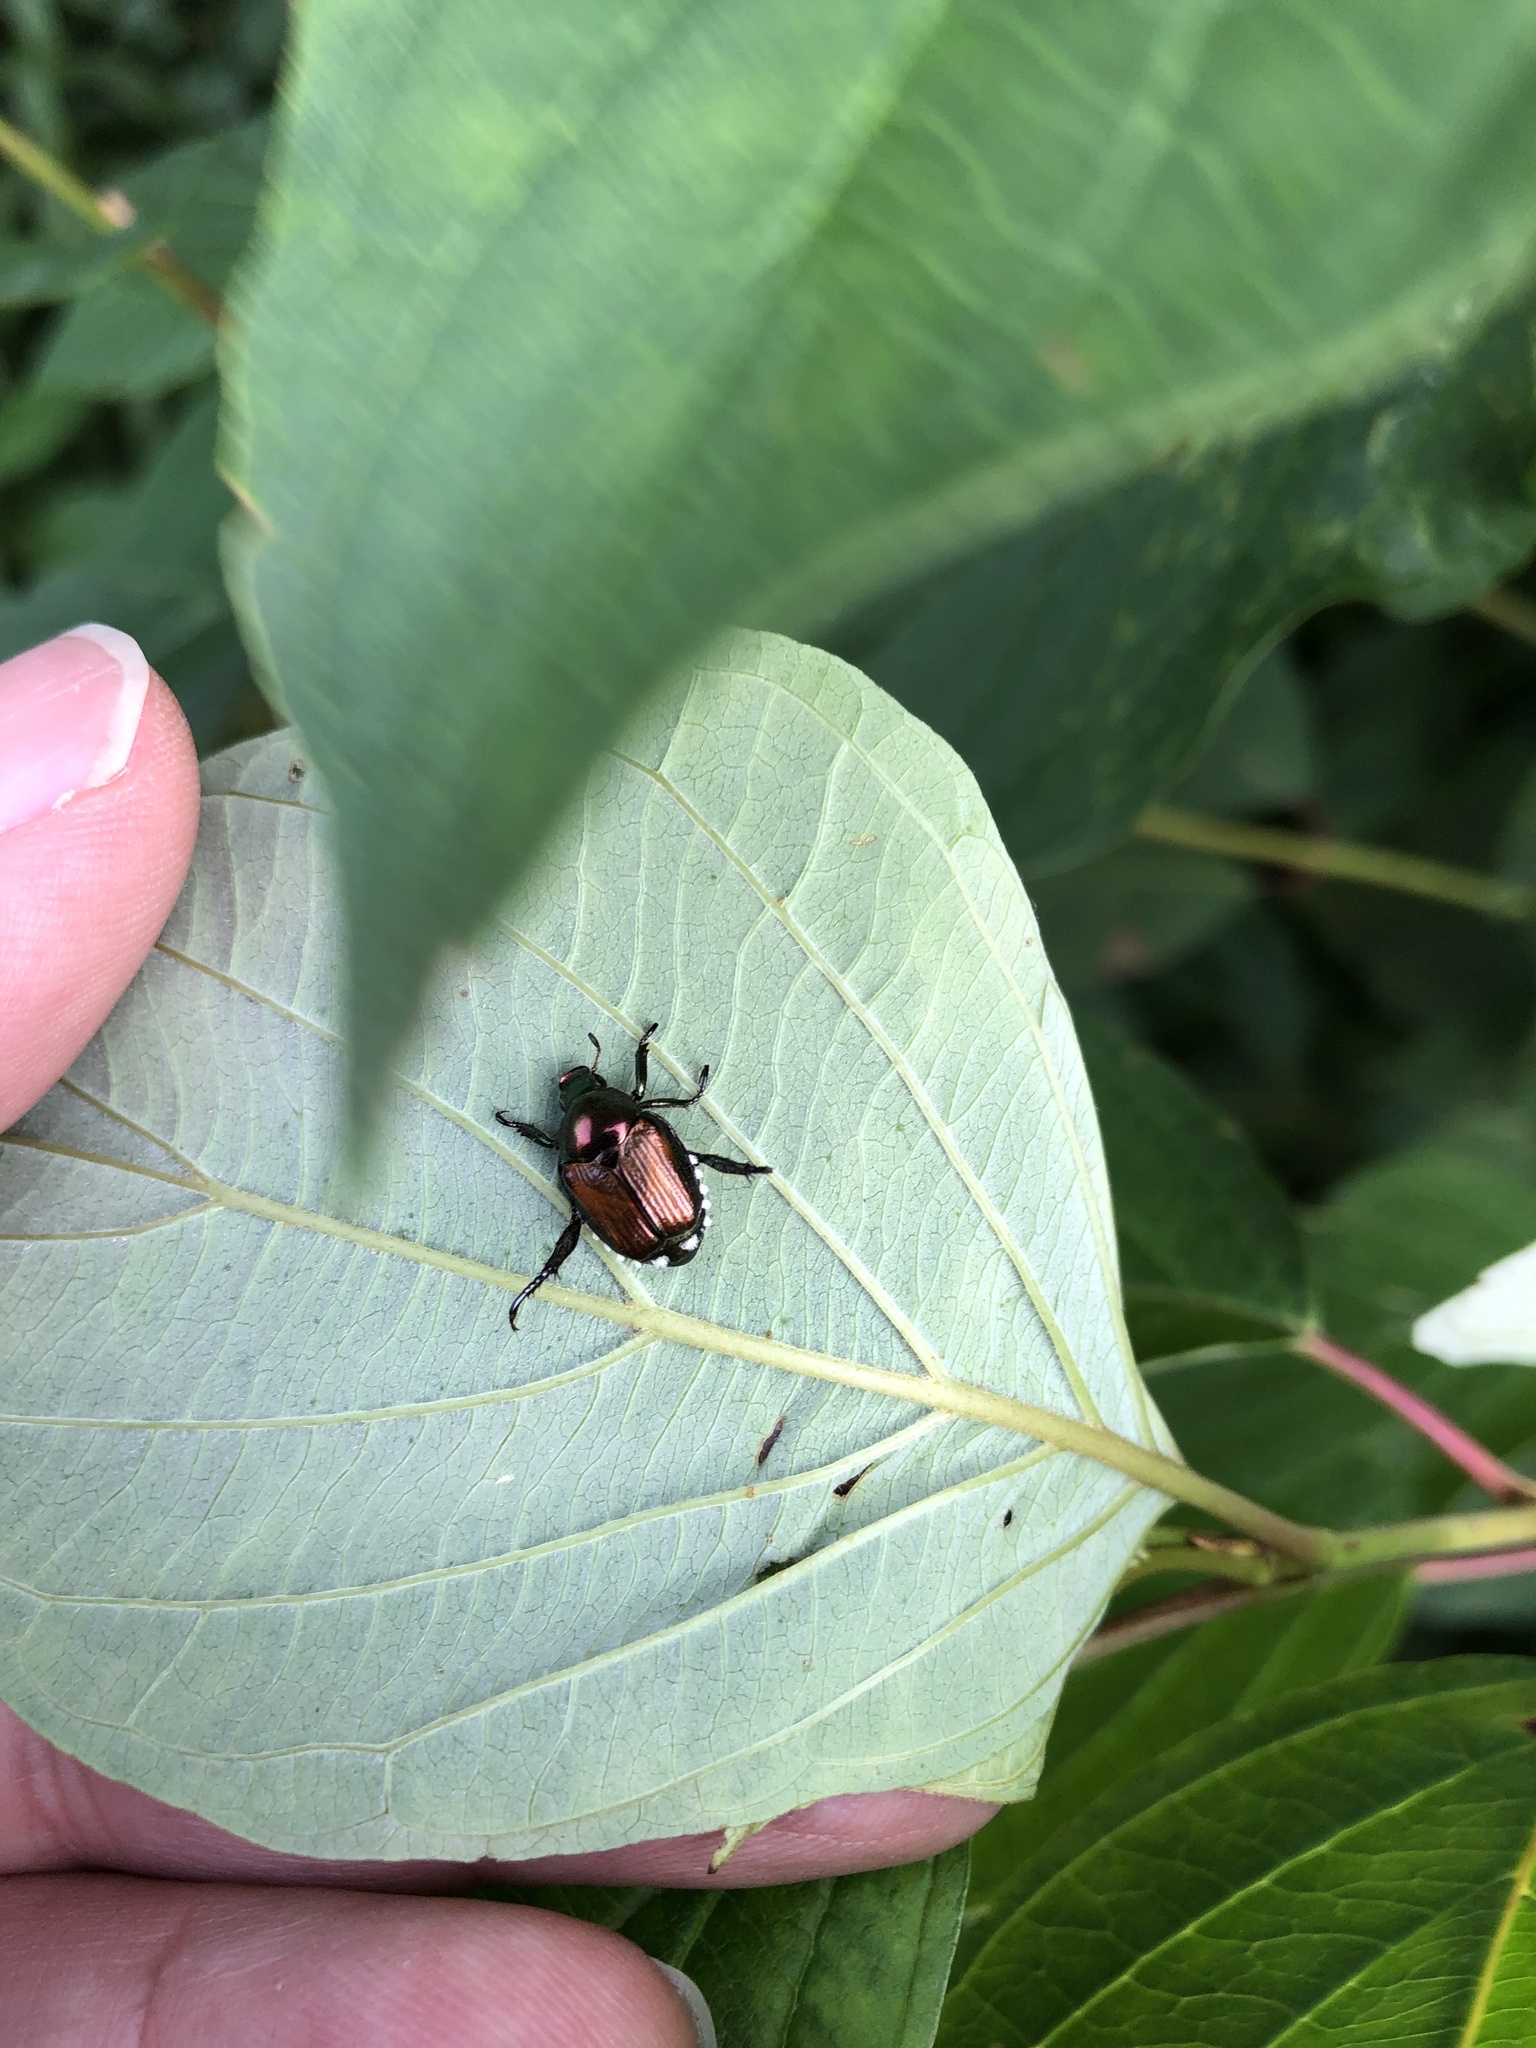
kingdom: Animalia
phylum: Arthropoda
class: Insecta
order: Coleoptera
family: Scarabaeidae
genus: Popillia
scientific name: Popillia japonica
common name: Japanese beetle
